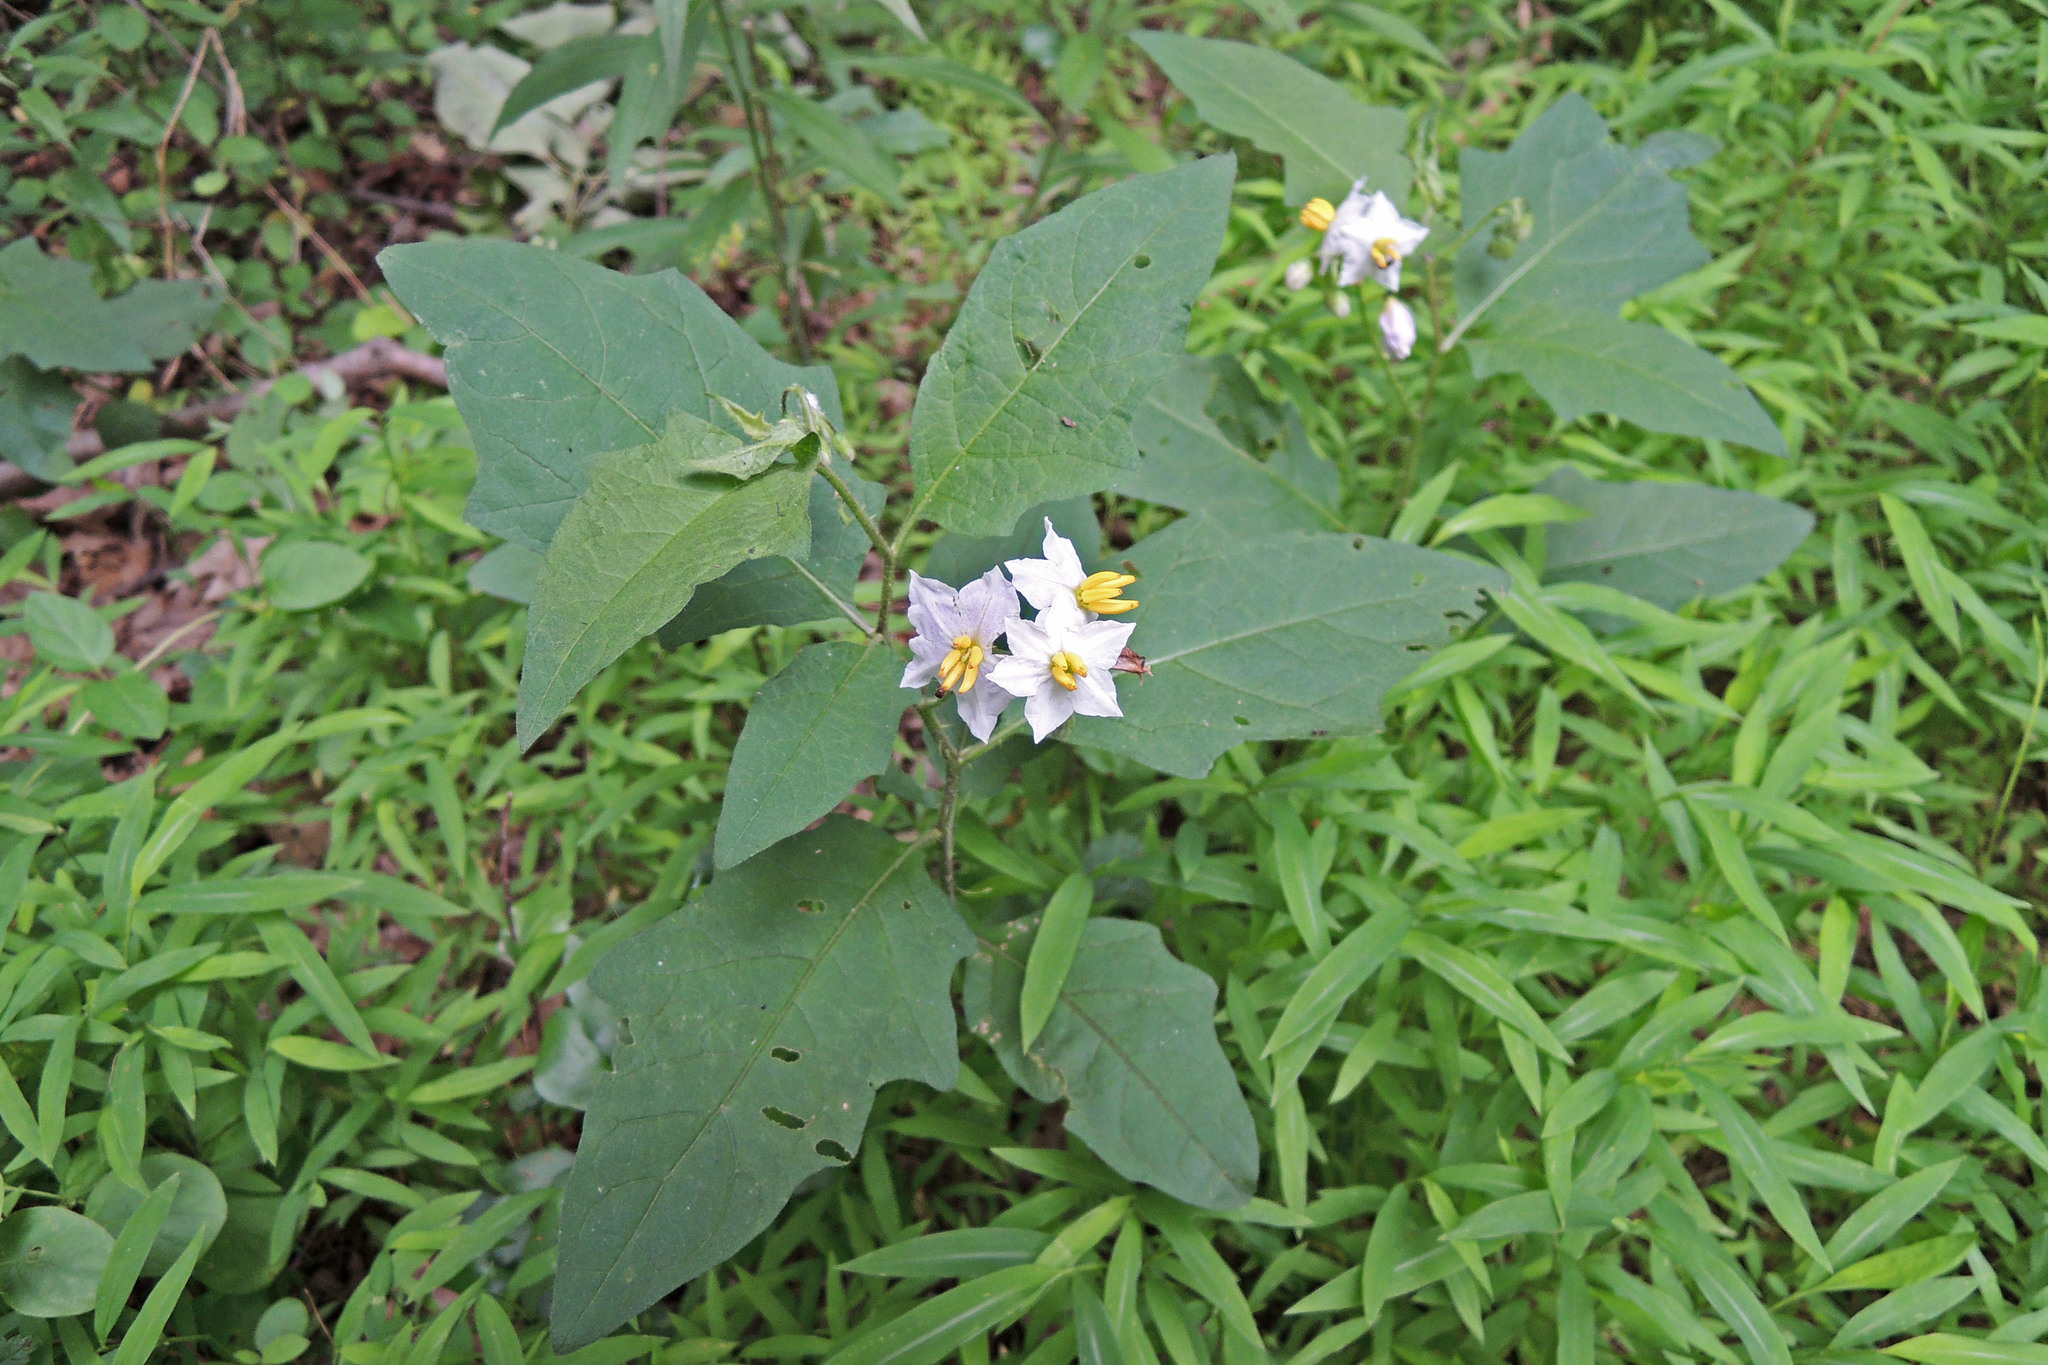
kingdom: Plantae
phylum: Tracheophyta
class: Magnoliopsida
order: Solanales
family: Solanaceae
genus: Solanum
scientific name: Solanum carolinense
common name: Horse-nettle
